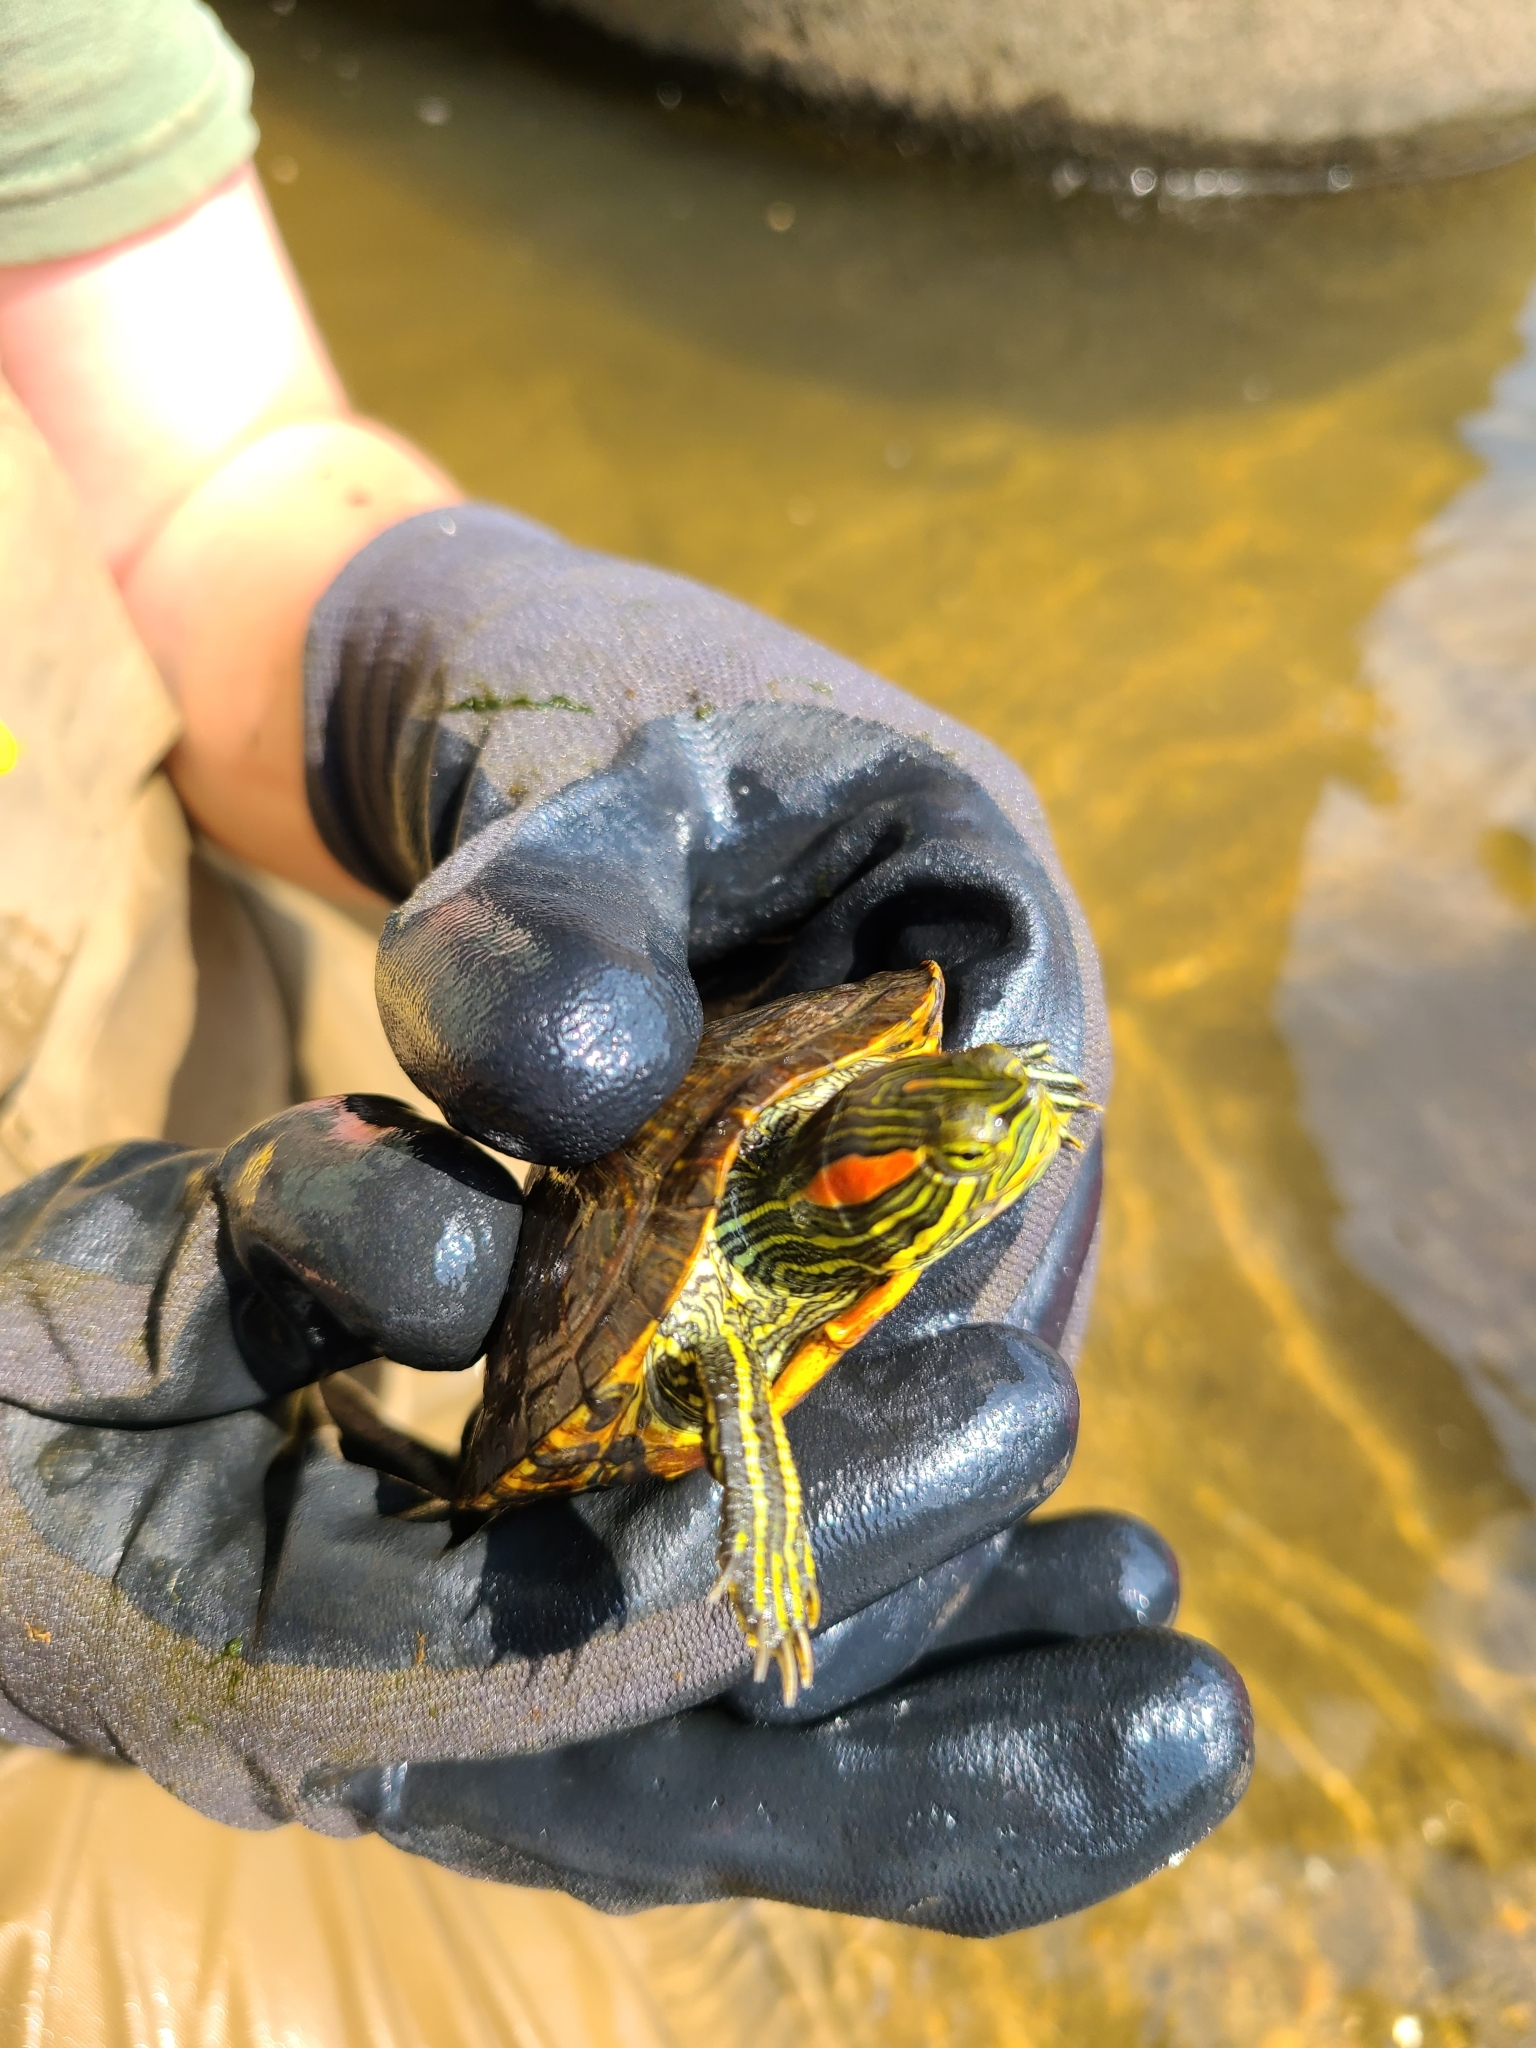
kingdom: Animalia
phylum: Chordata
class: Testudines
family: Emydidae
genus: Trachemys
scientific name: Trachemys scripta
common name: Slider
